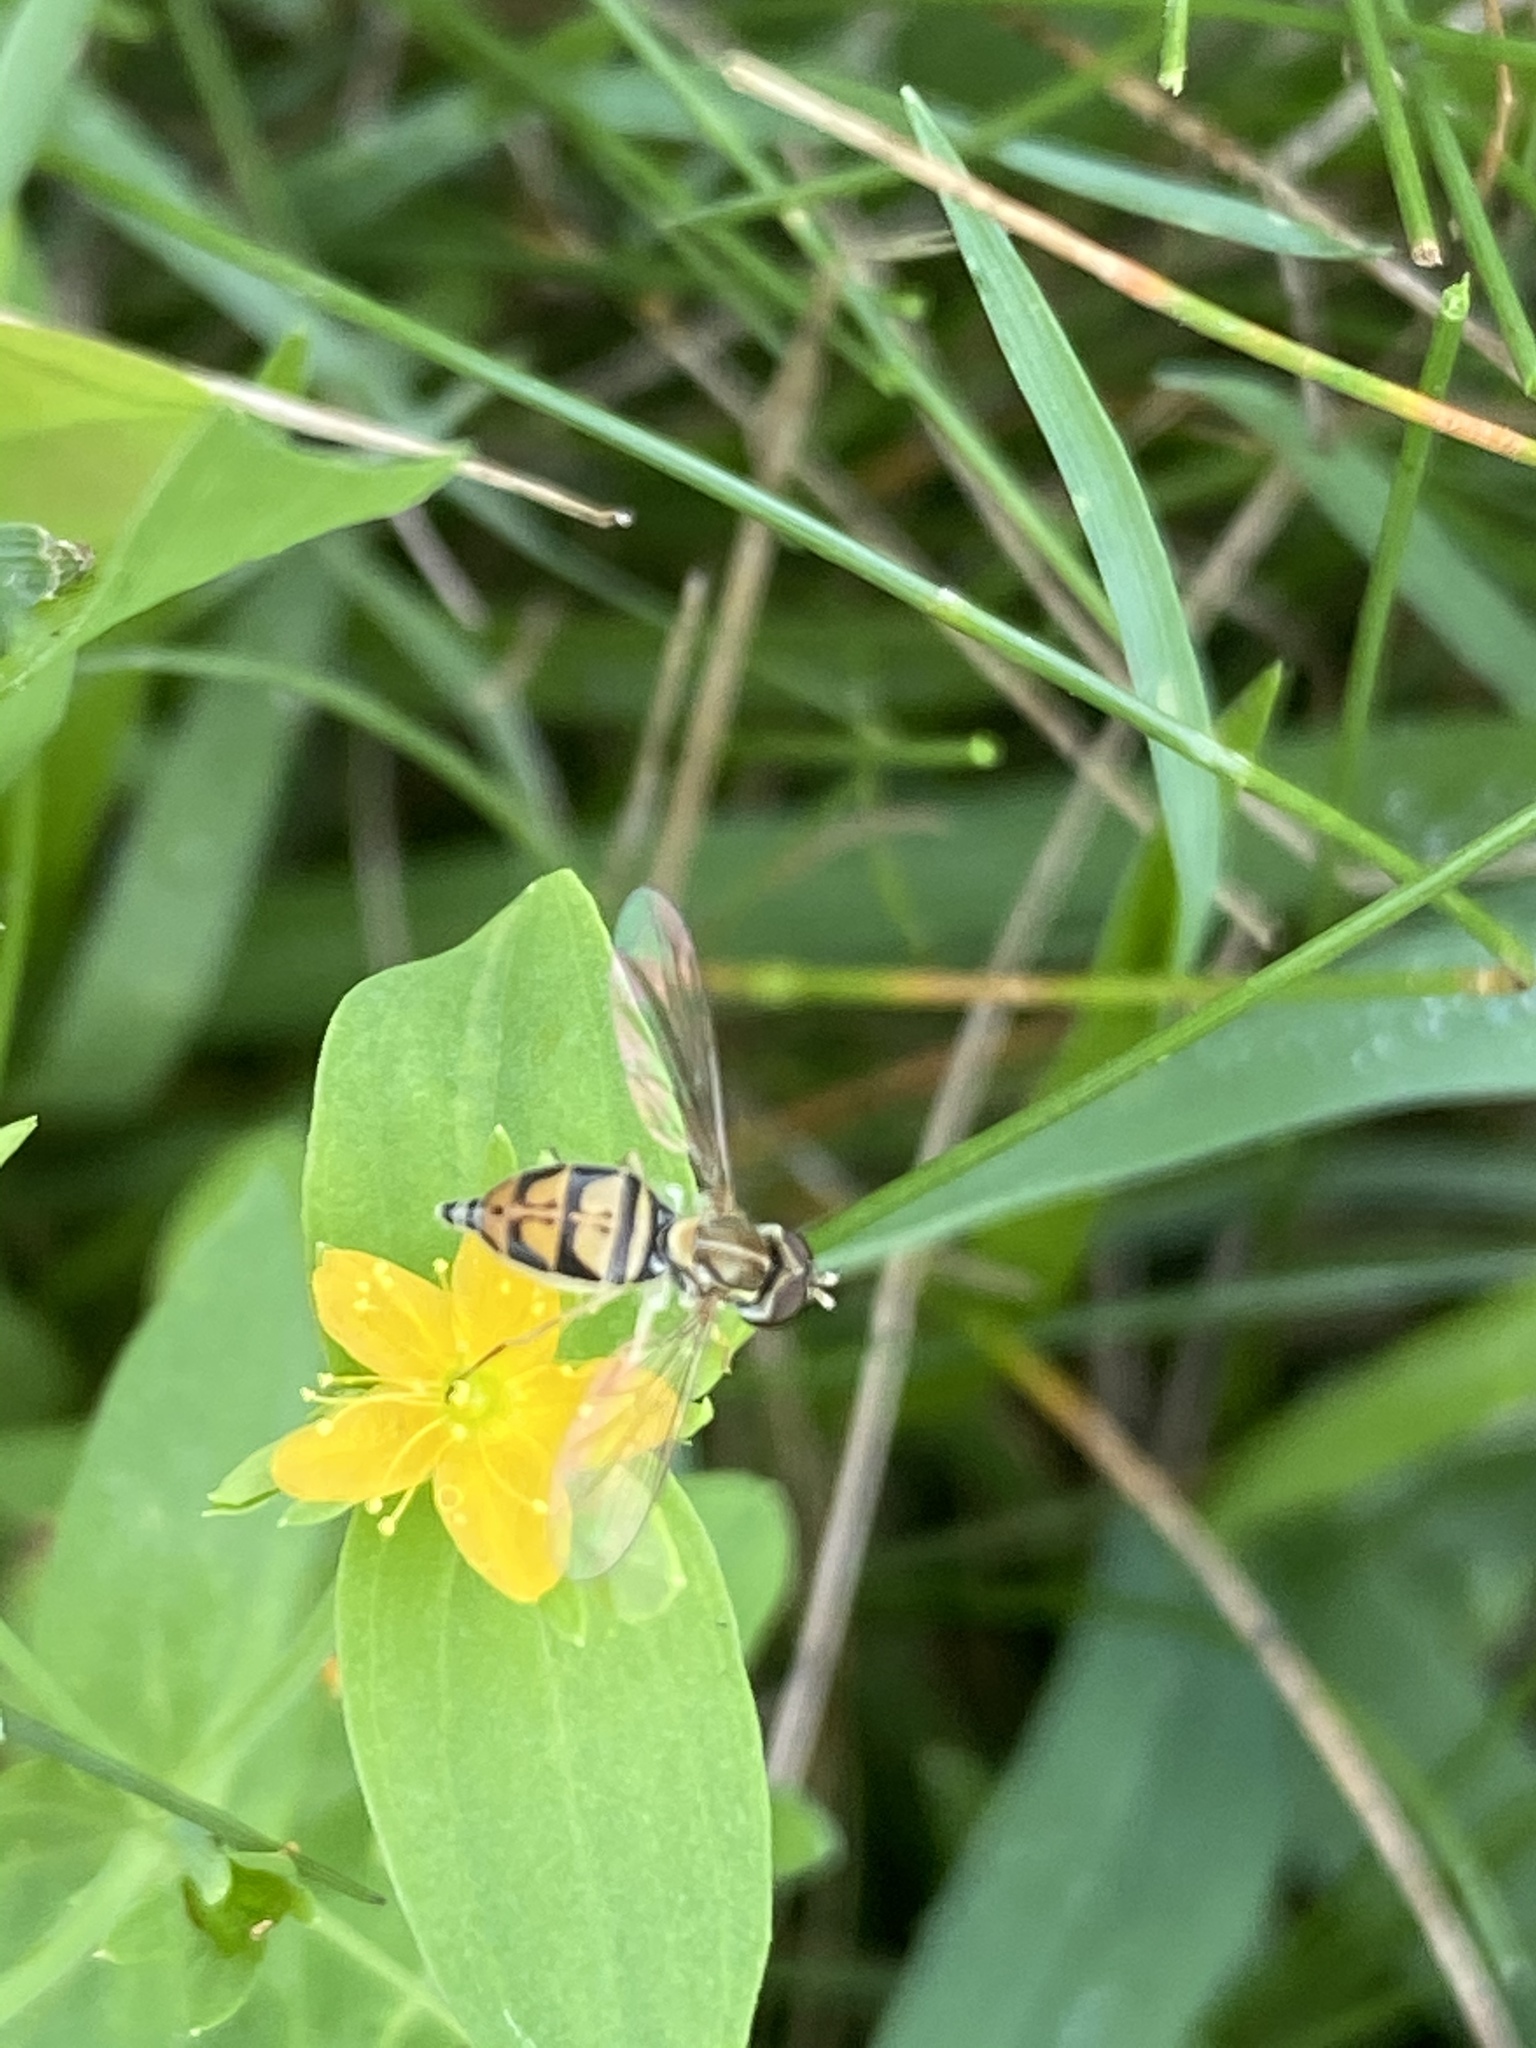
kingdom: Animalia
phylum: Arthropoda
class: Insecta
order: Diptera
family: Syrphidae
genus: Toxomerus
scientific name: Toxomerus marginatus
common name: Syrphid fly
